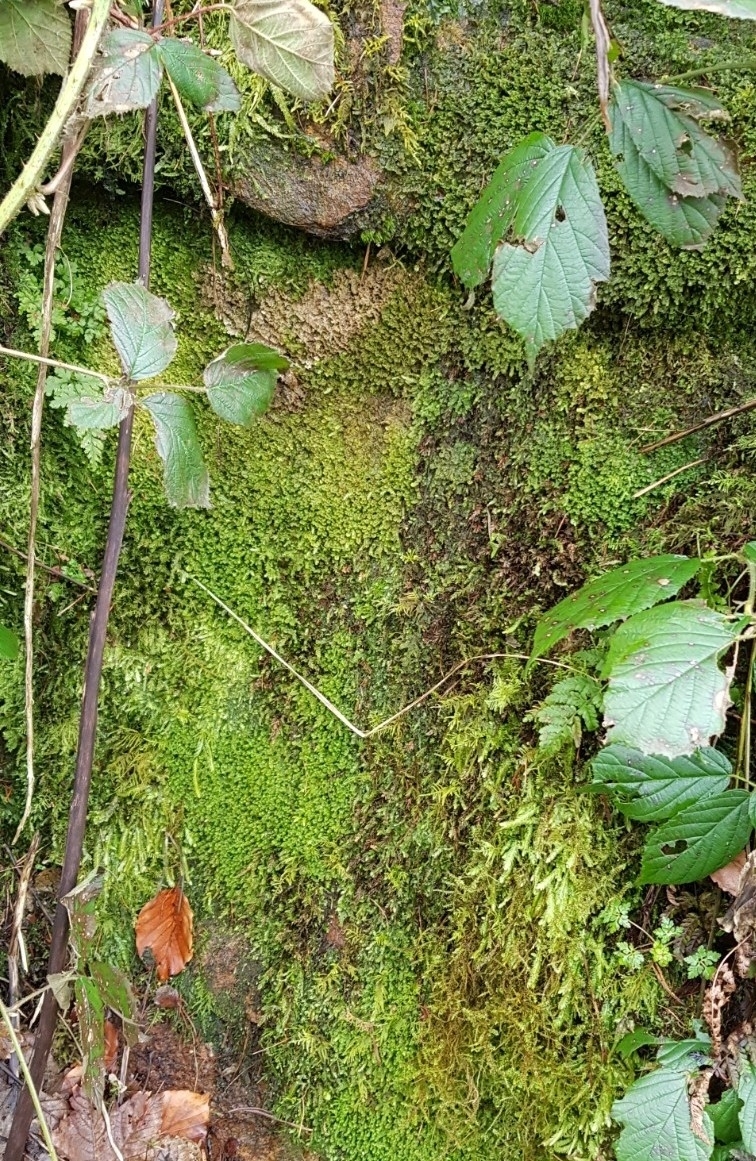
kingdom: Plantae
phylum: Marchantiophyta
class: Jungermanniopsida
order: Jungermanniales
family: Scapaniaceae
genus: Diplophyllum
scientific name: Diplophyllum albicans
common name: White earwort
